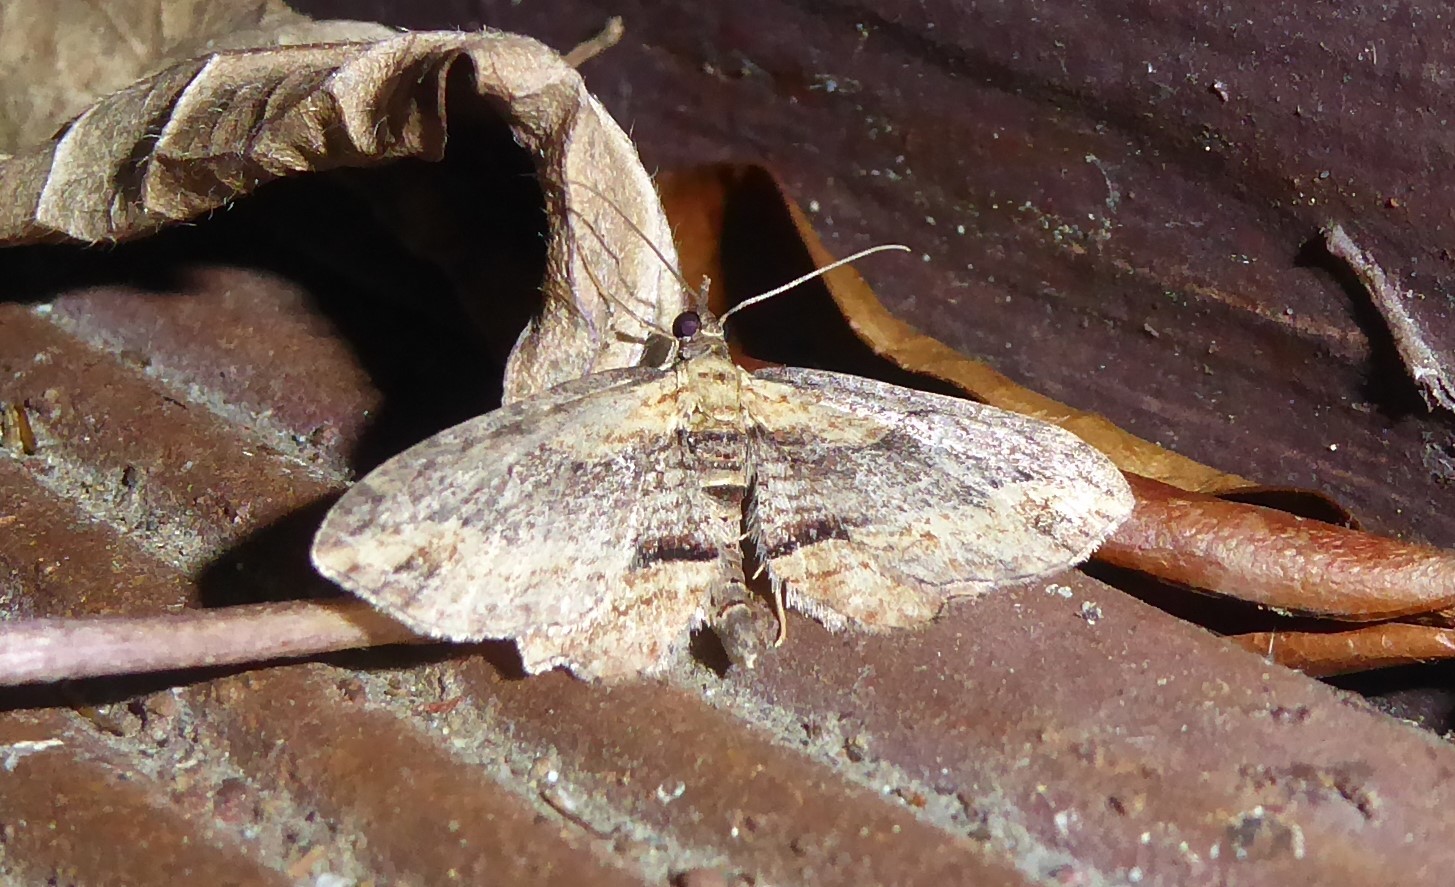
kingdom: Animalia
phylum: Arthropoda
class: Insecta
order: Lepidoptera
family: Geometridae
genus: Chloroclystis
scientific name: Chloroclystis filata
